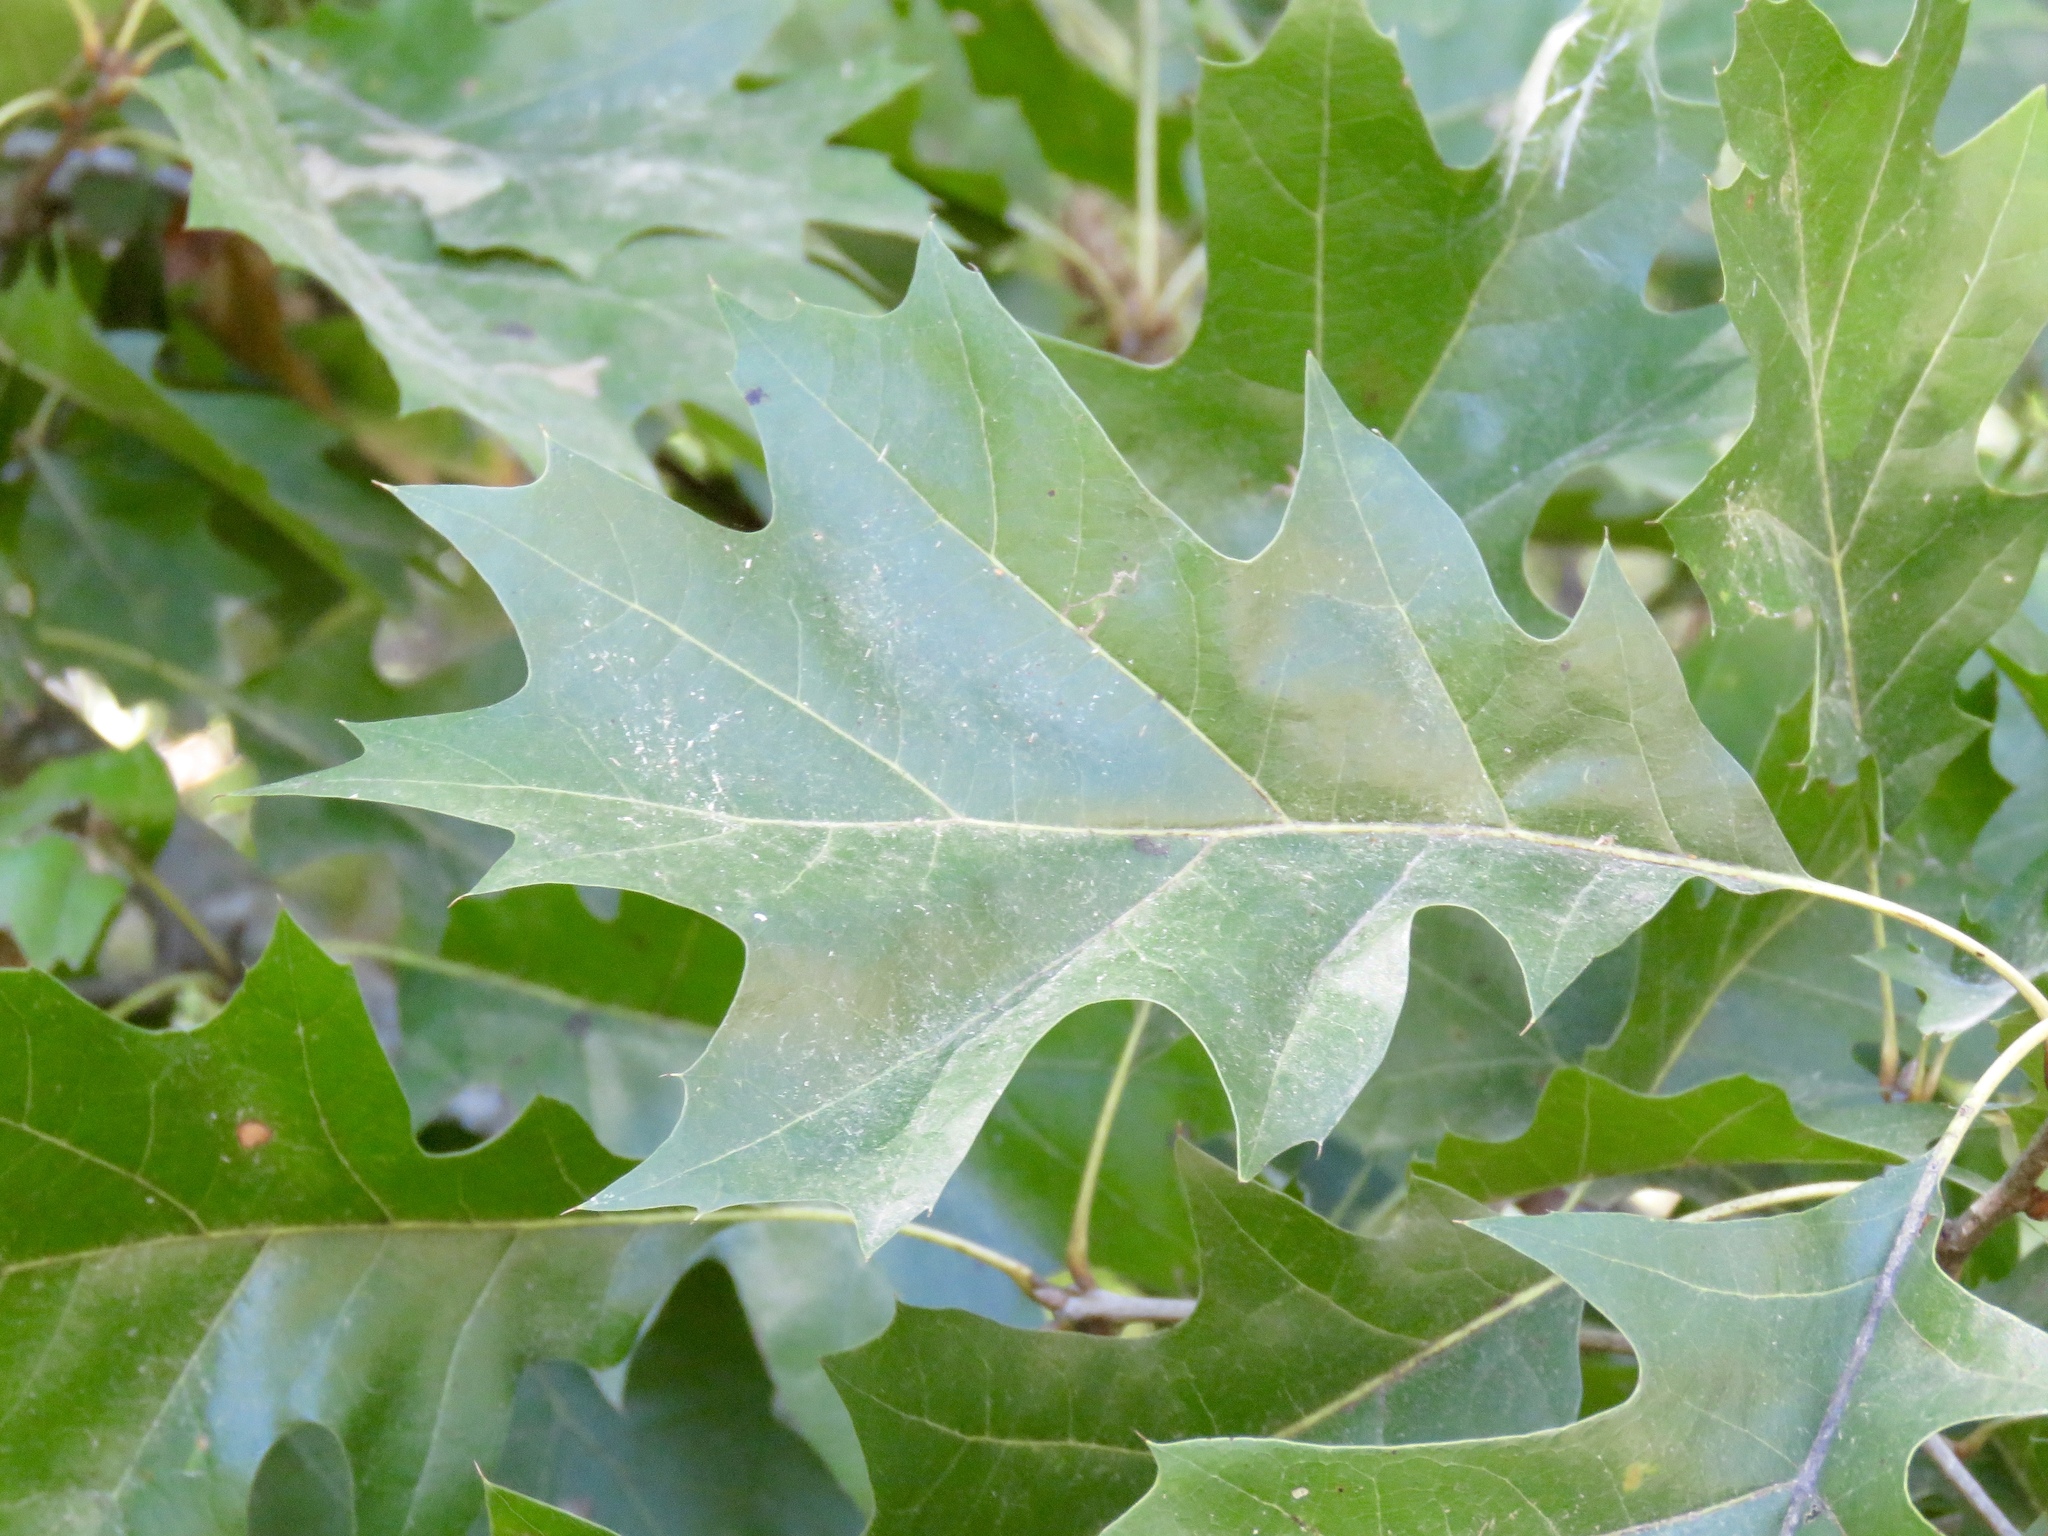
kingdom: Plantae
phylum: Tracheophyta
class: Magnoliopsida
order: Fagales
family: Fagaceae
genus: Quercus
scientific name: Quercus velutina
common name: Black oak
